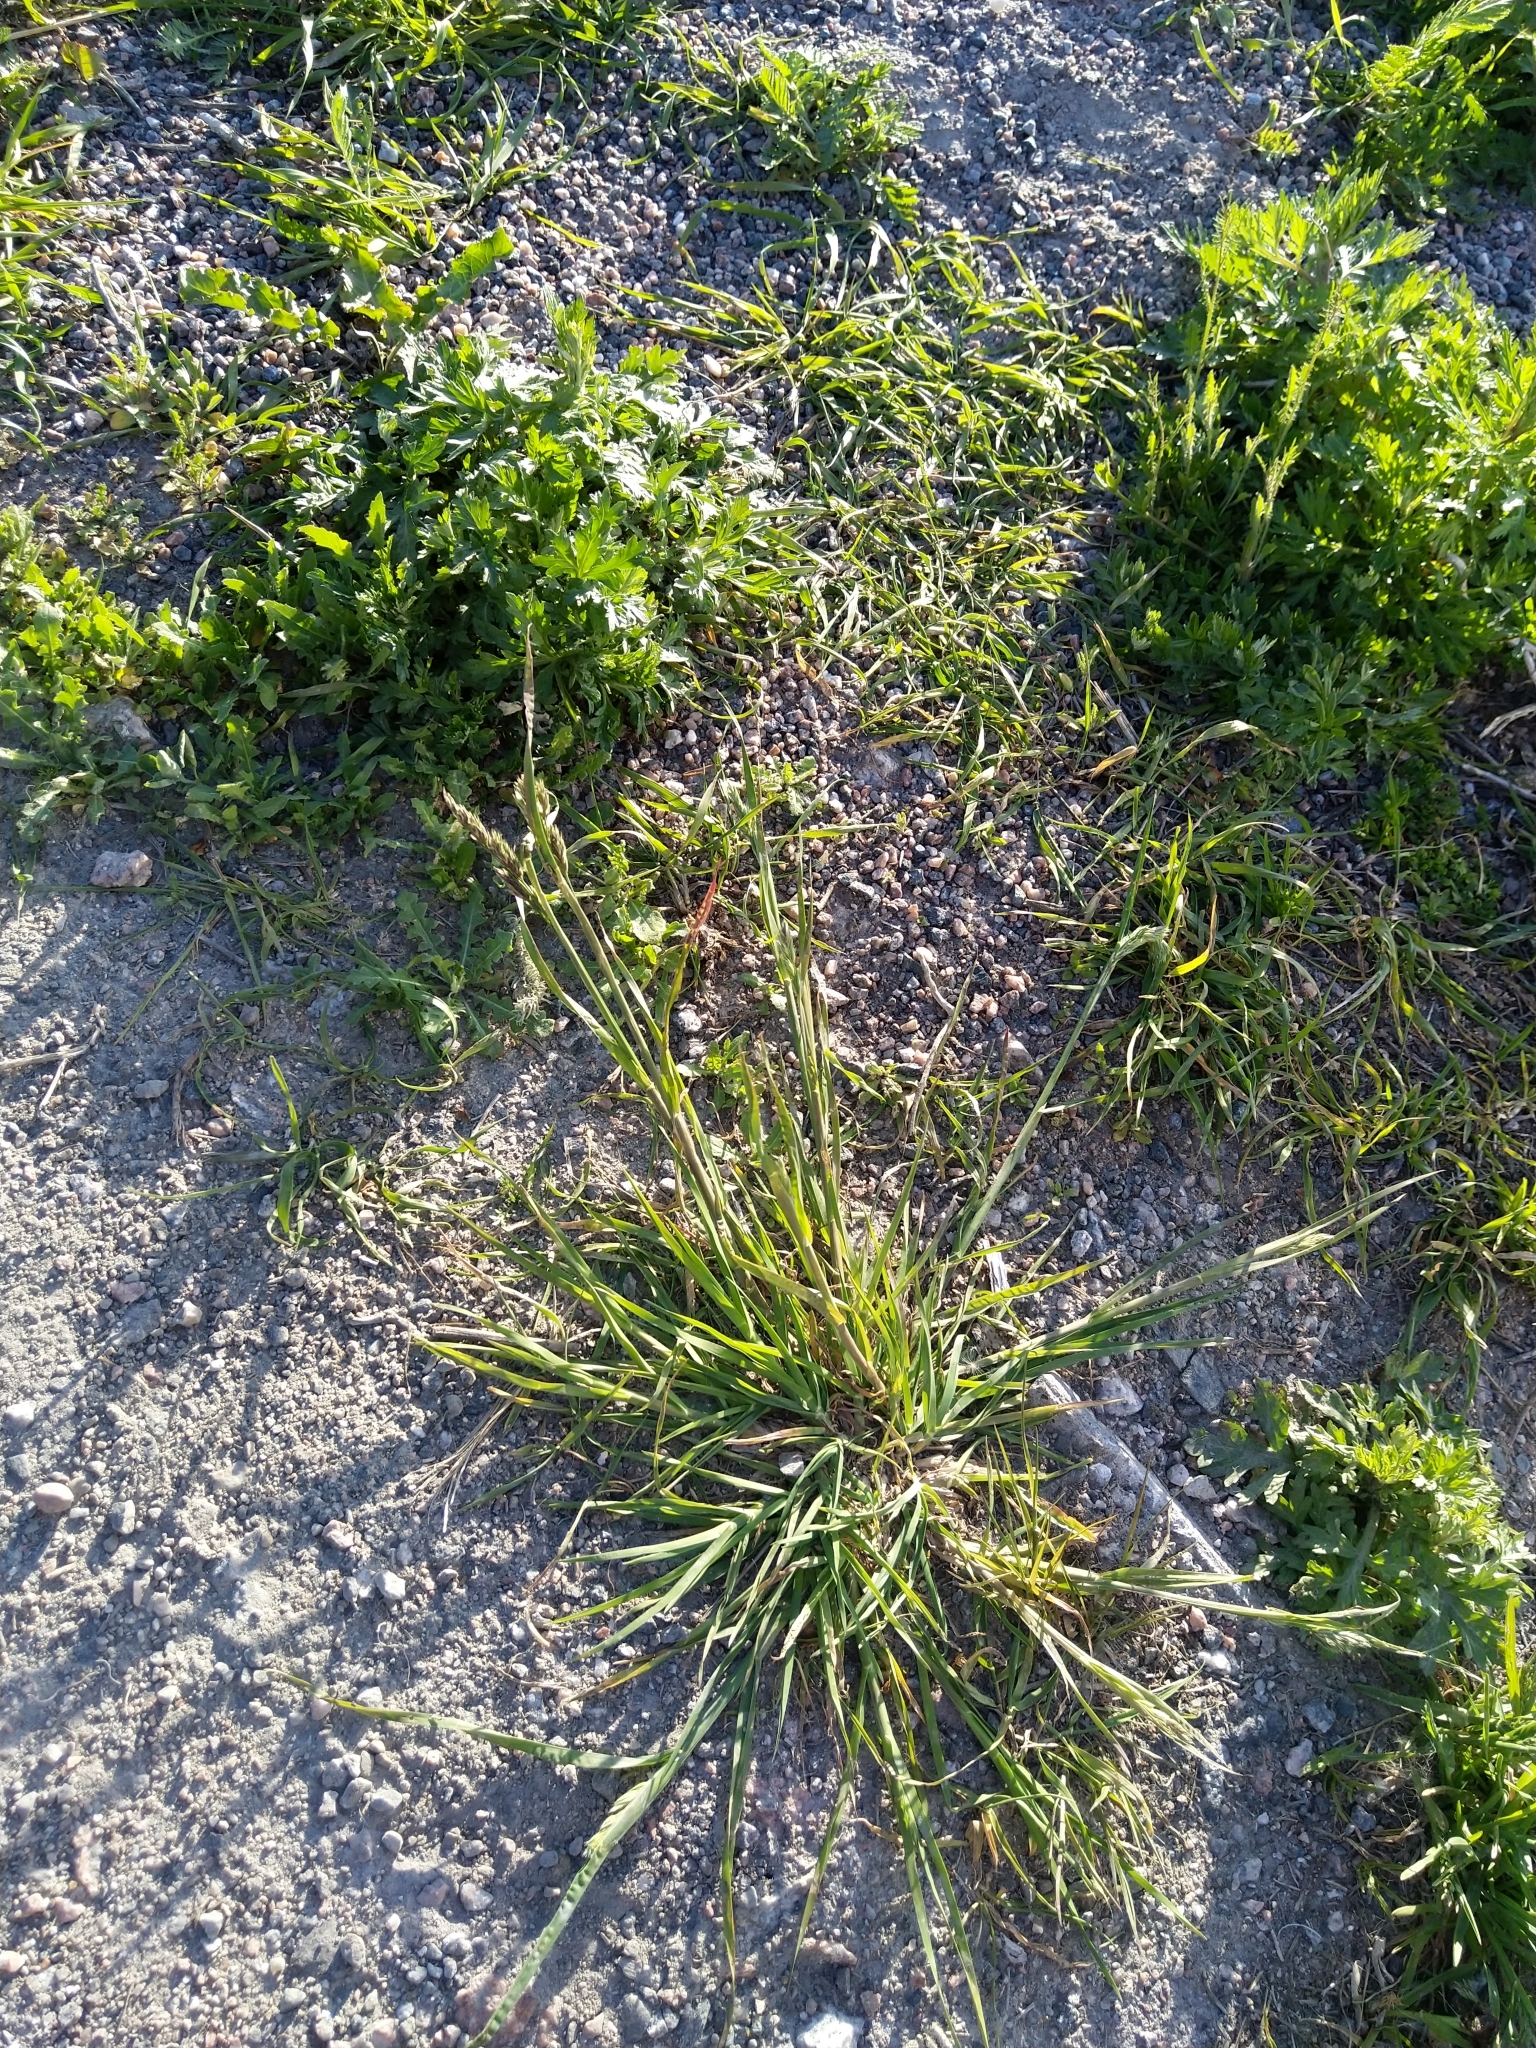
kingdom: Plantae
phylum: Tracheophyta
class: Liliopsida
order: Poales
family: Poaceae
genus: Dactylis
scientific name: Dactylis glomerata
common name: Orchardgrass
